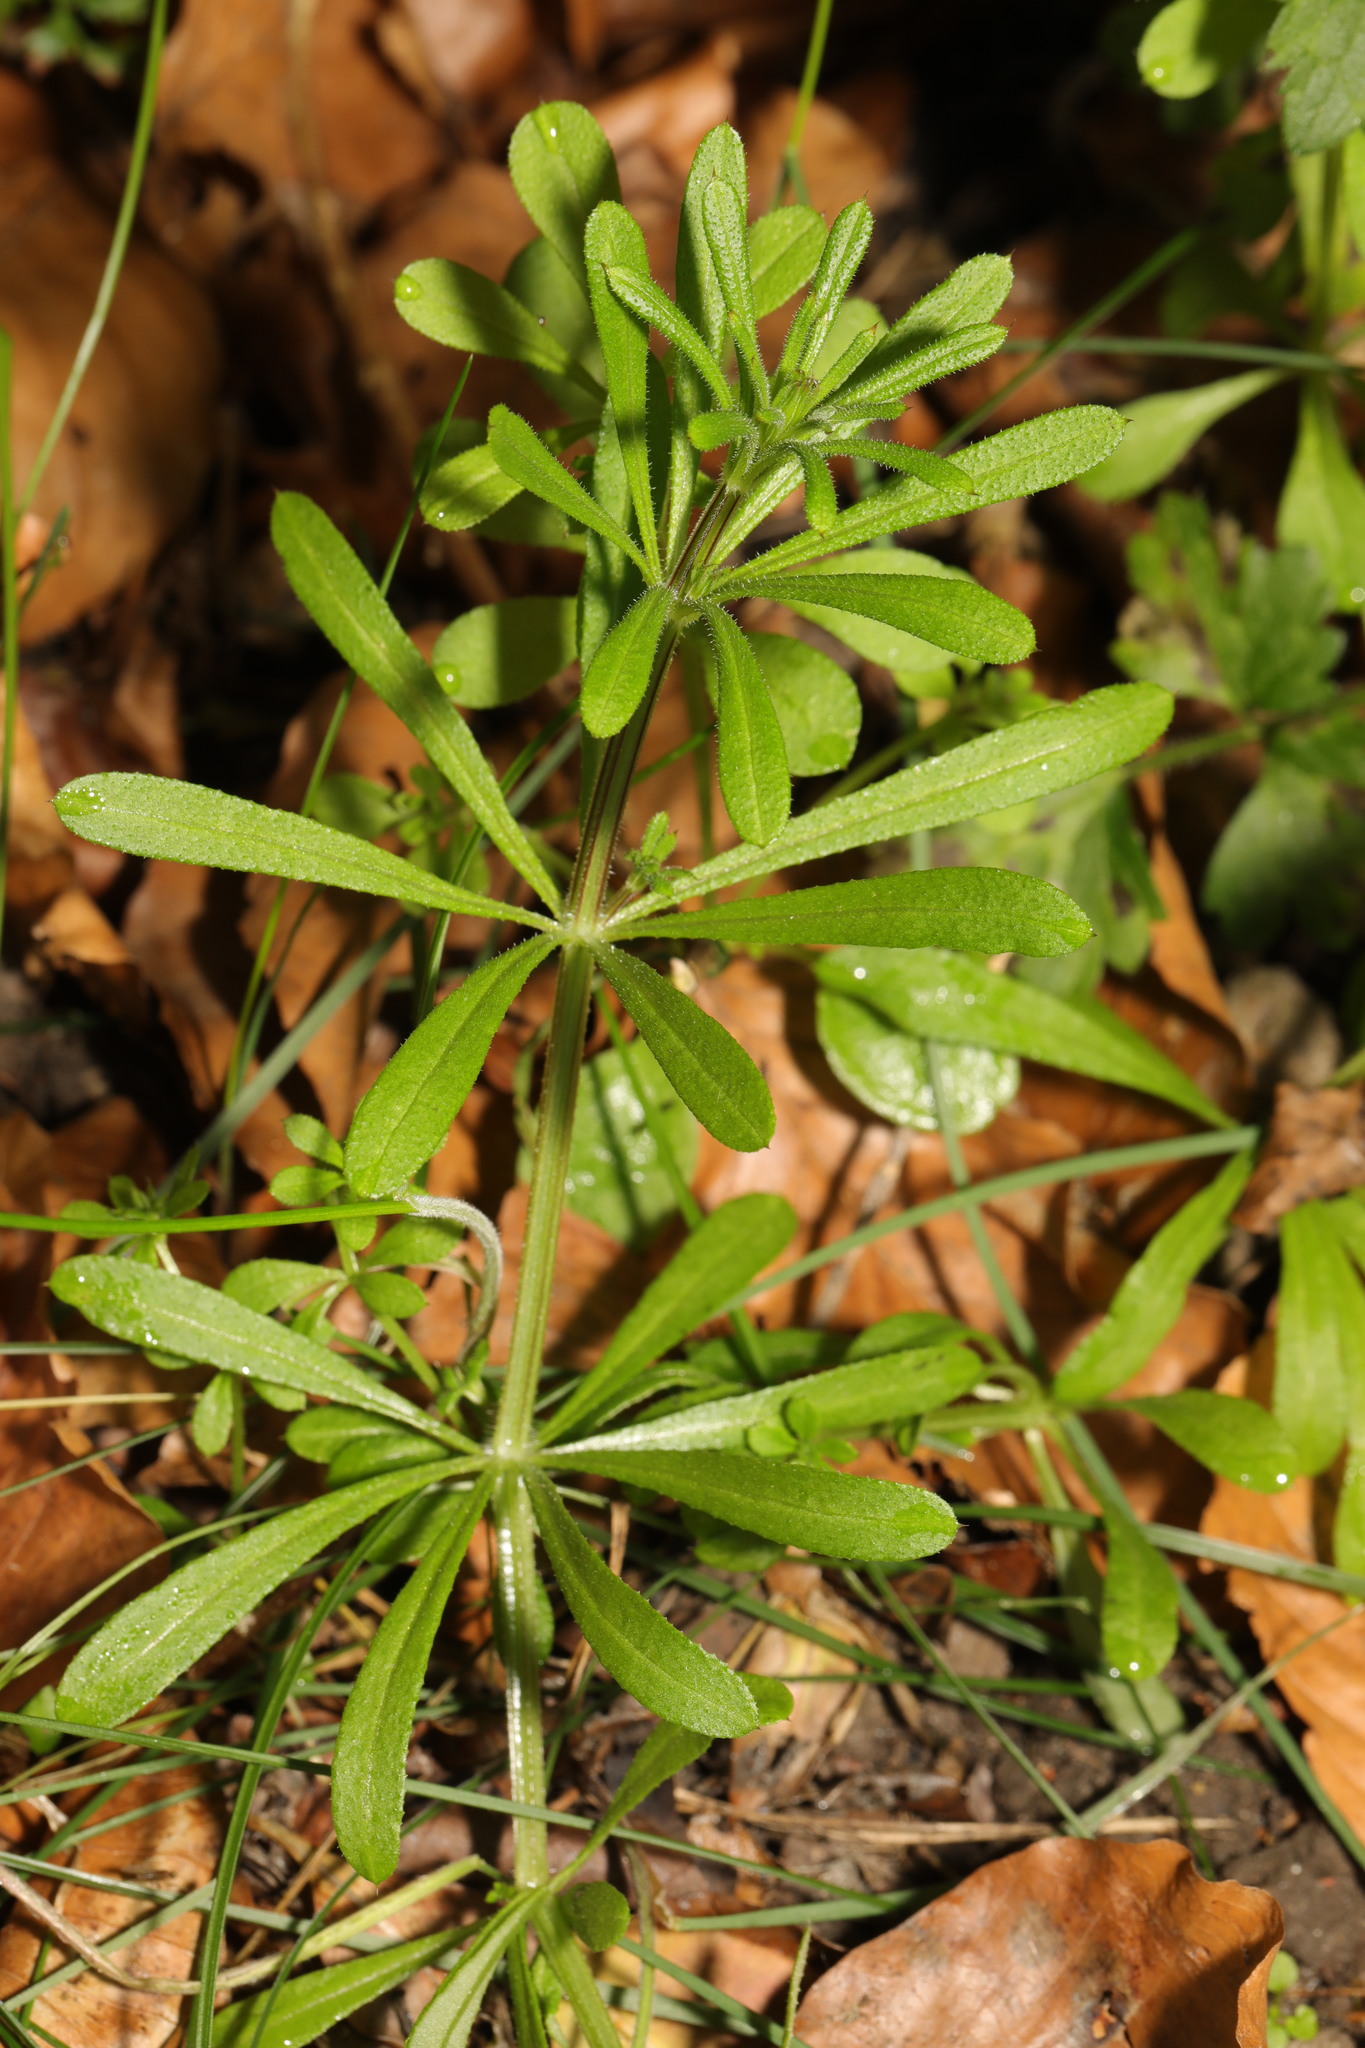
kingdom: Plantae
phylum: Tracheophyta
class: Magnoliopsida
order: Gentianales
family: Rubiaceae
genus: Galium
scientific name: Galium aparine
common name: Cleavers
